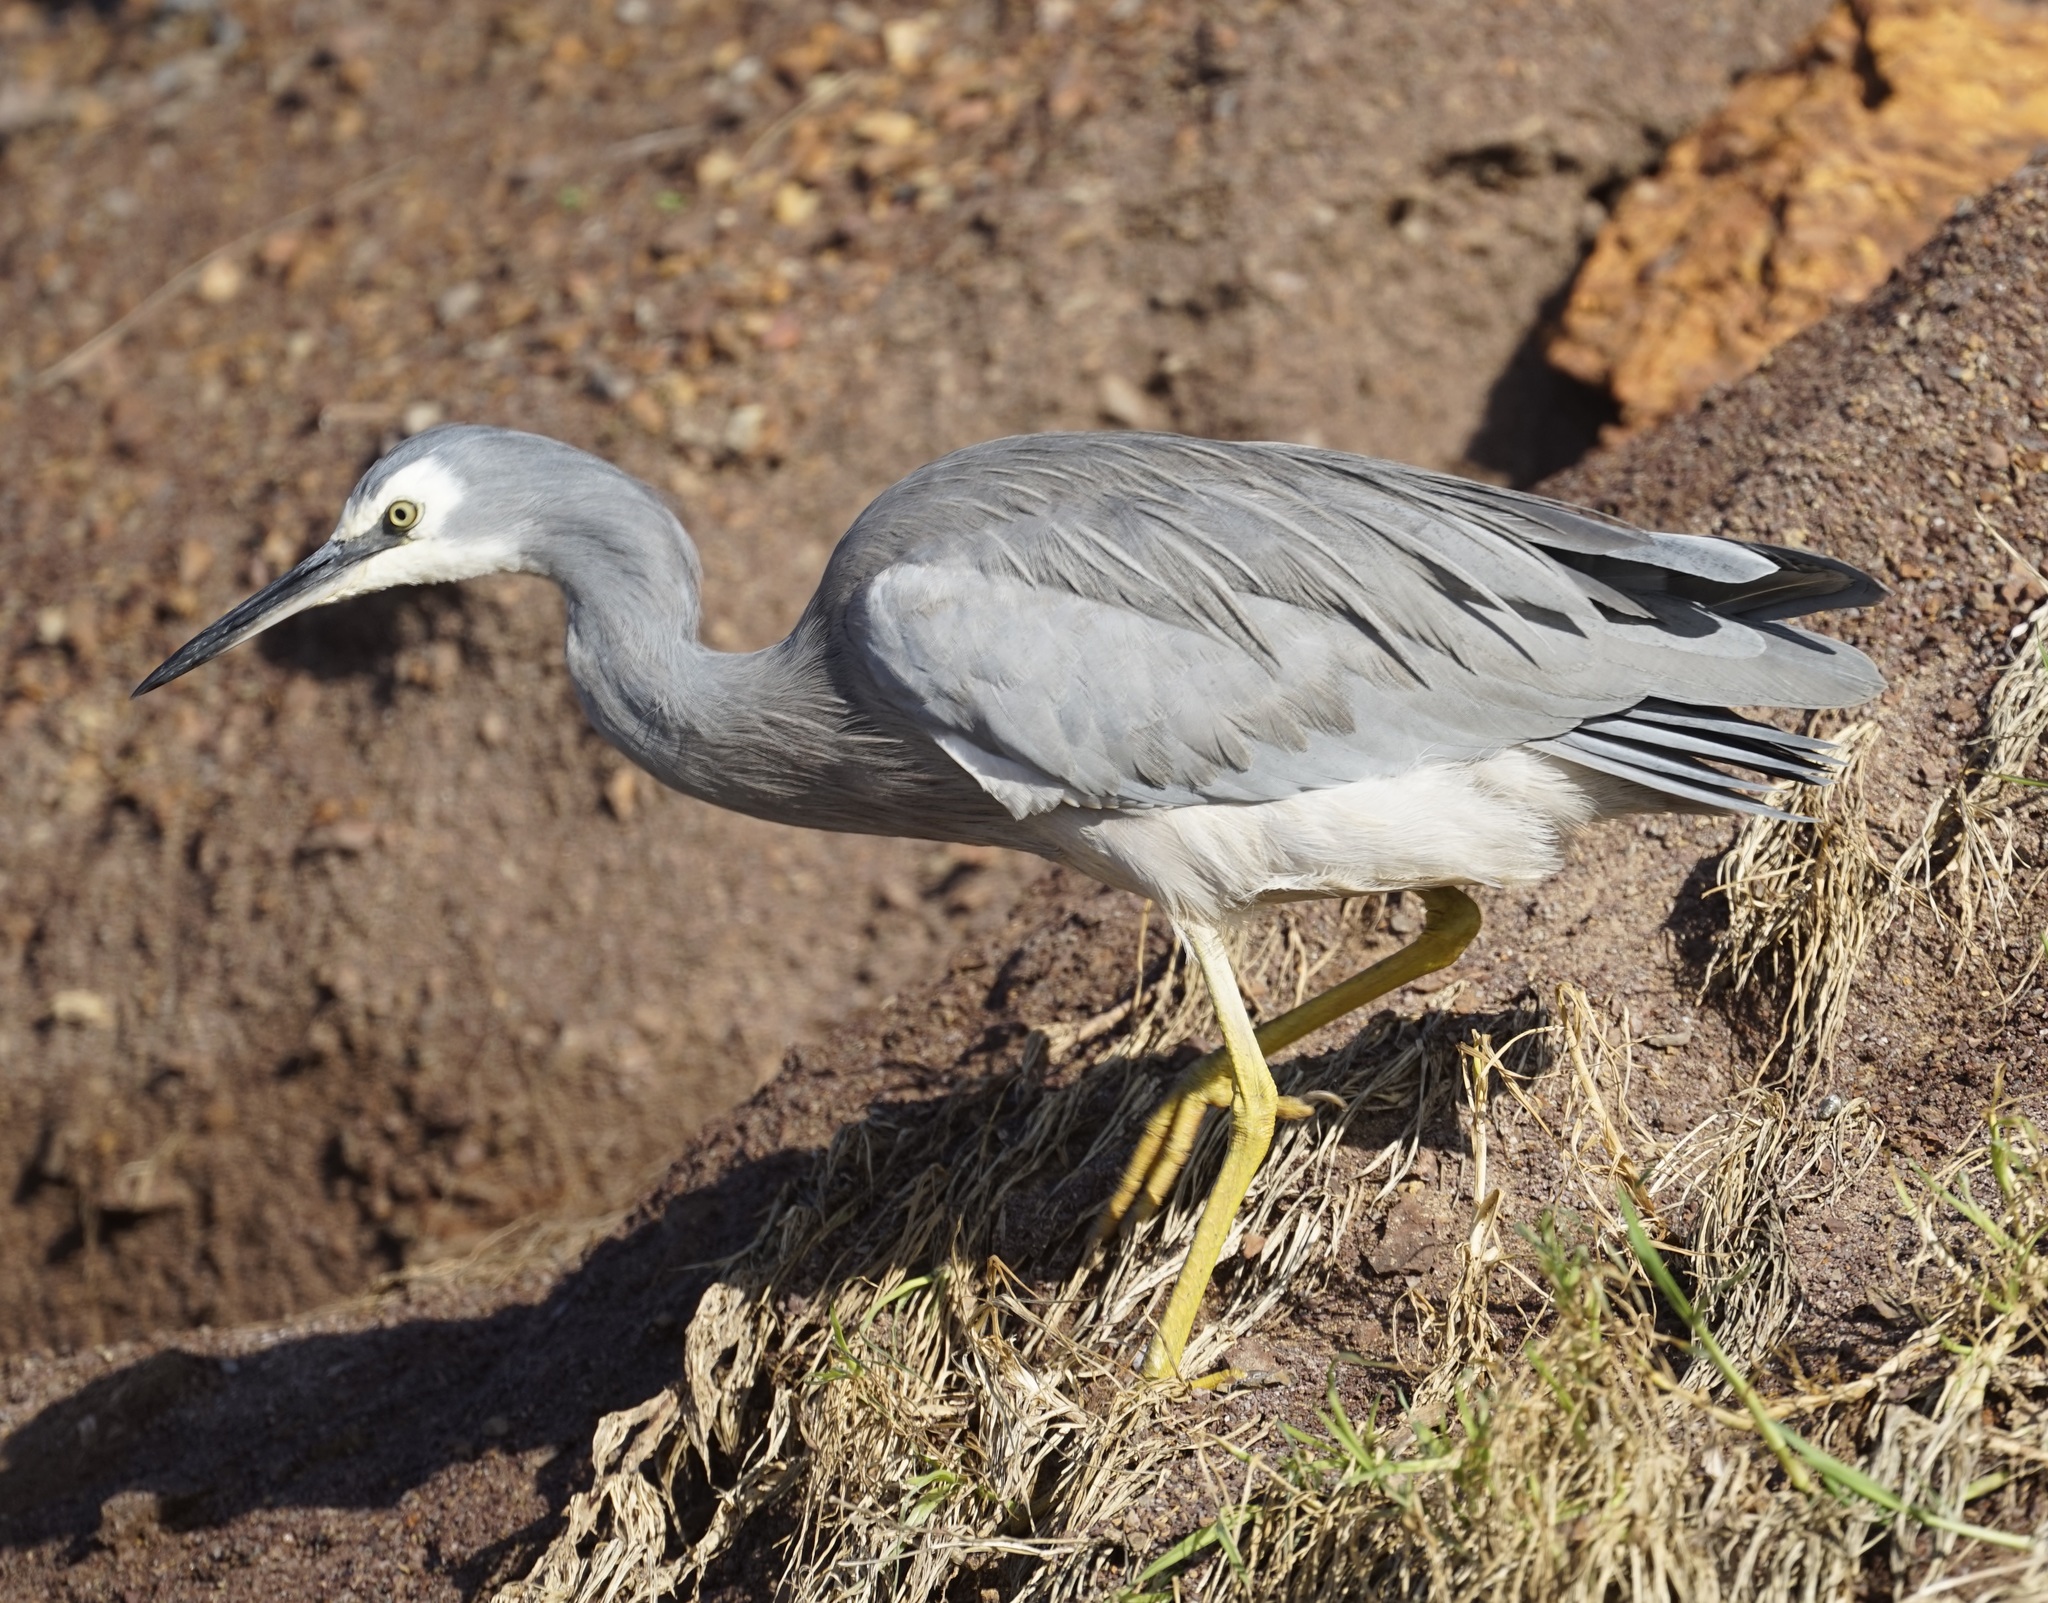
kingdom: Animalia
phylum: Chordata
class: Aves
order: Pelecaniformes
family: Ardeidae
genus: Egretta
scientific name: Egretta novaehollandiae
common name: White-faced heron
